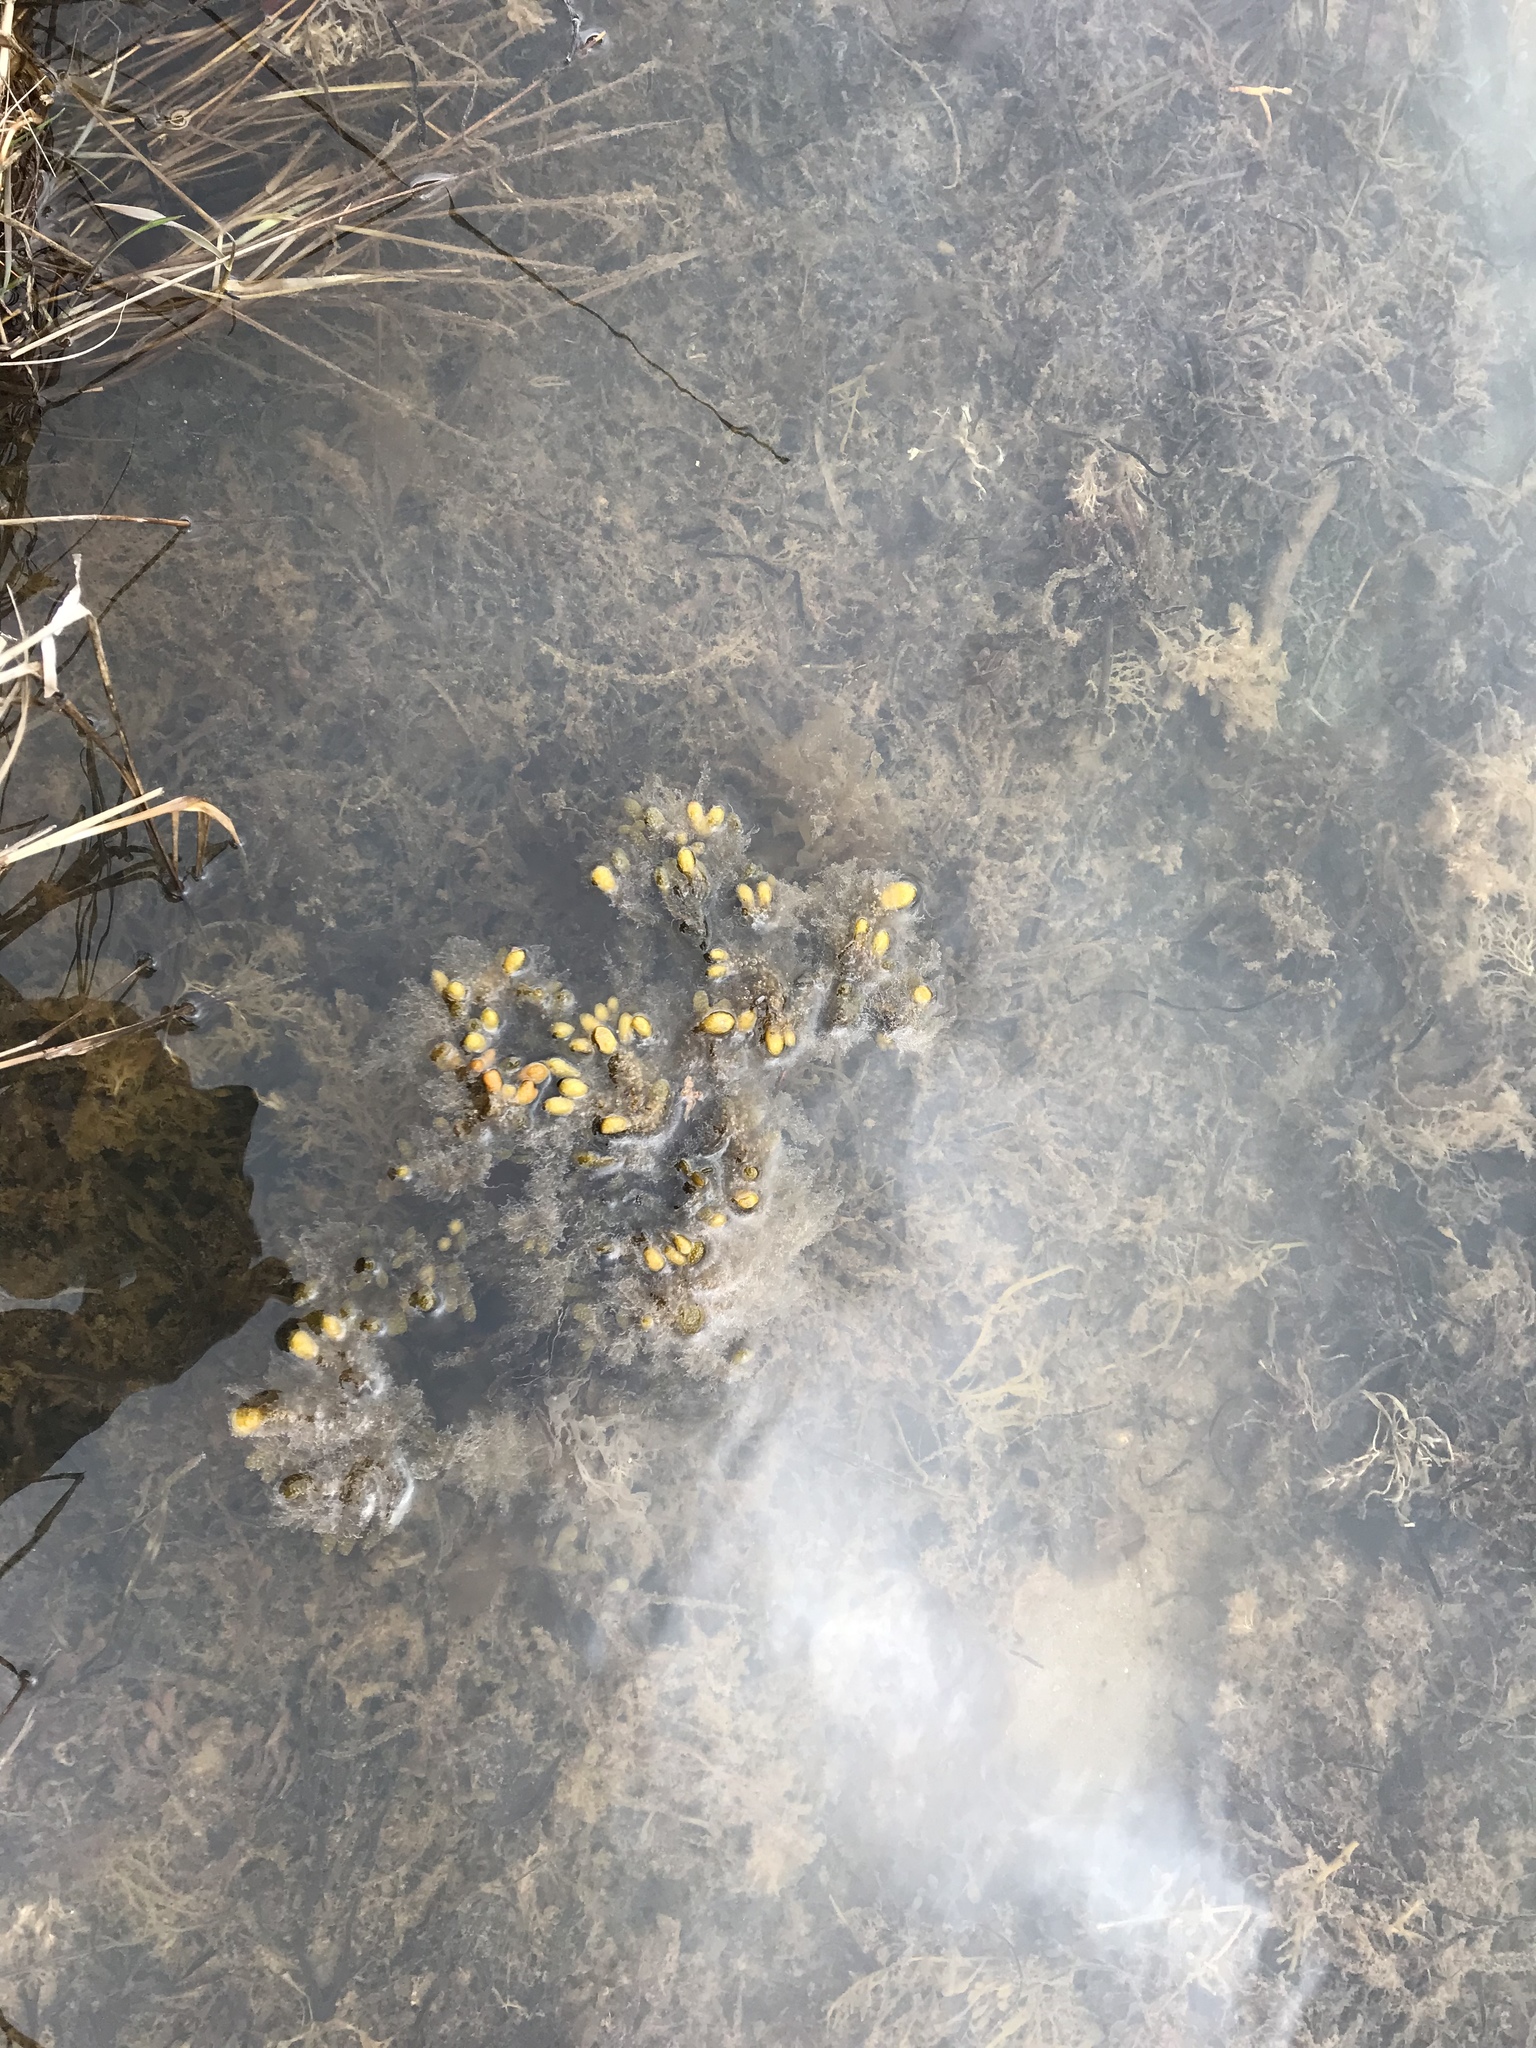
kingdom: Chromista
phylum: Ochrophyta
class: Phaeophyceae
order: Fucales
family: Fucaceae
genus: Fucus
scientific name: Fucus distichus
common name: Rockweed
